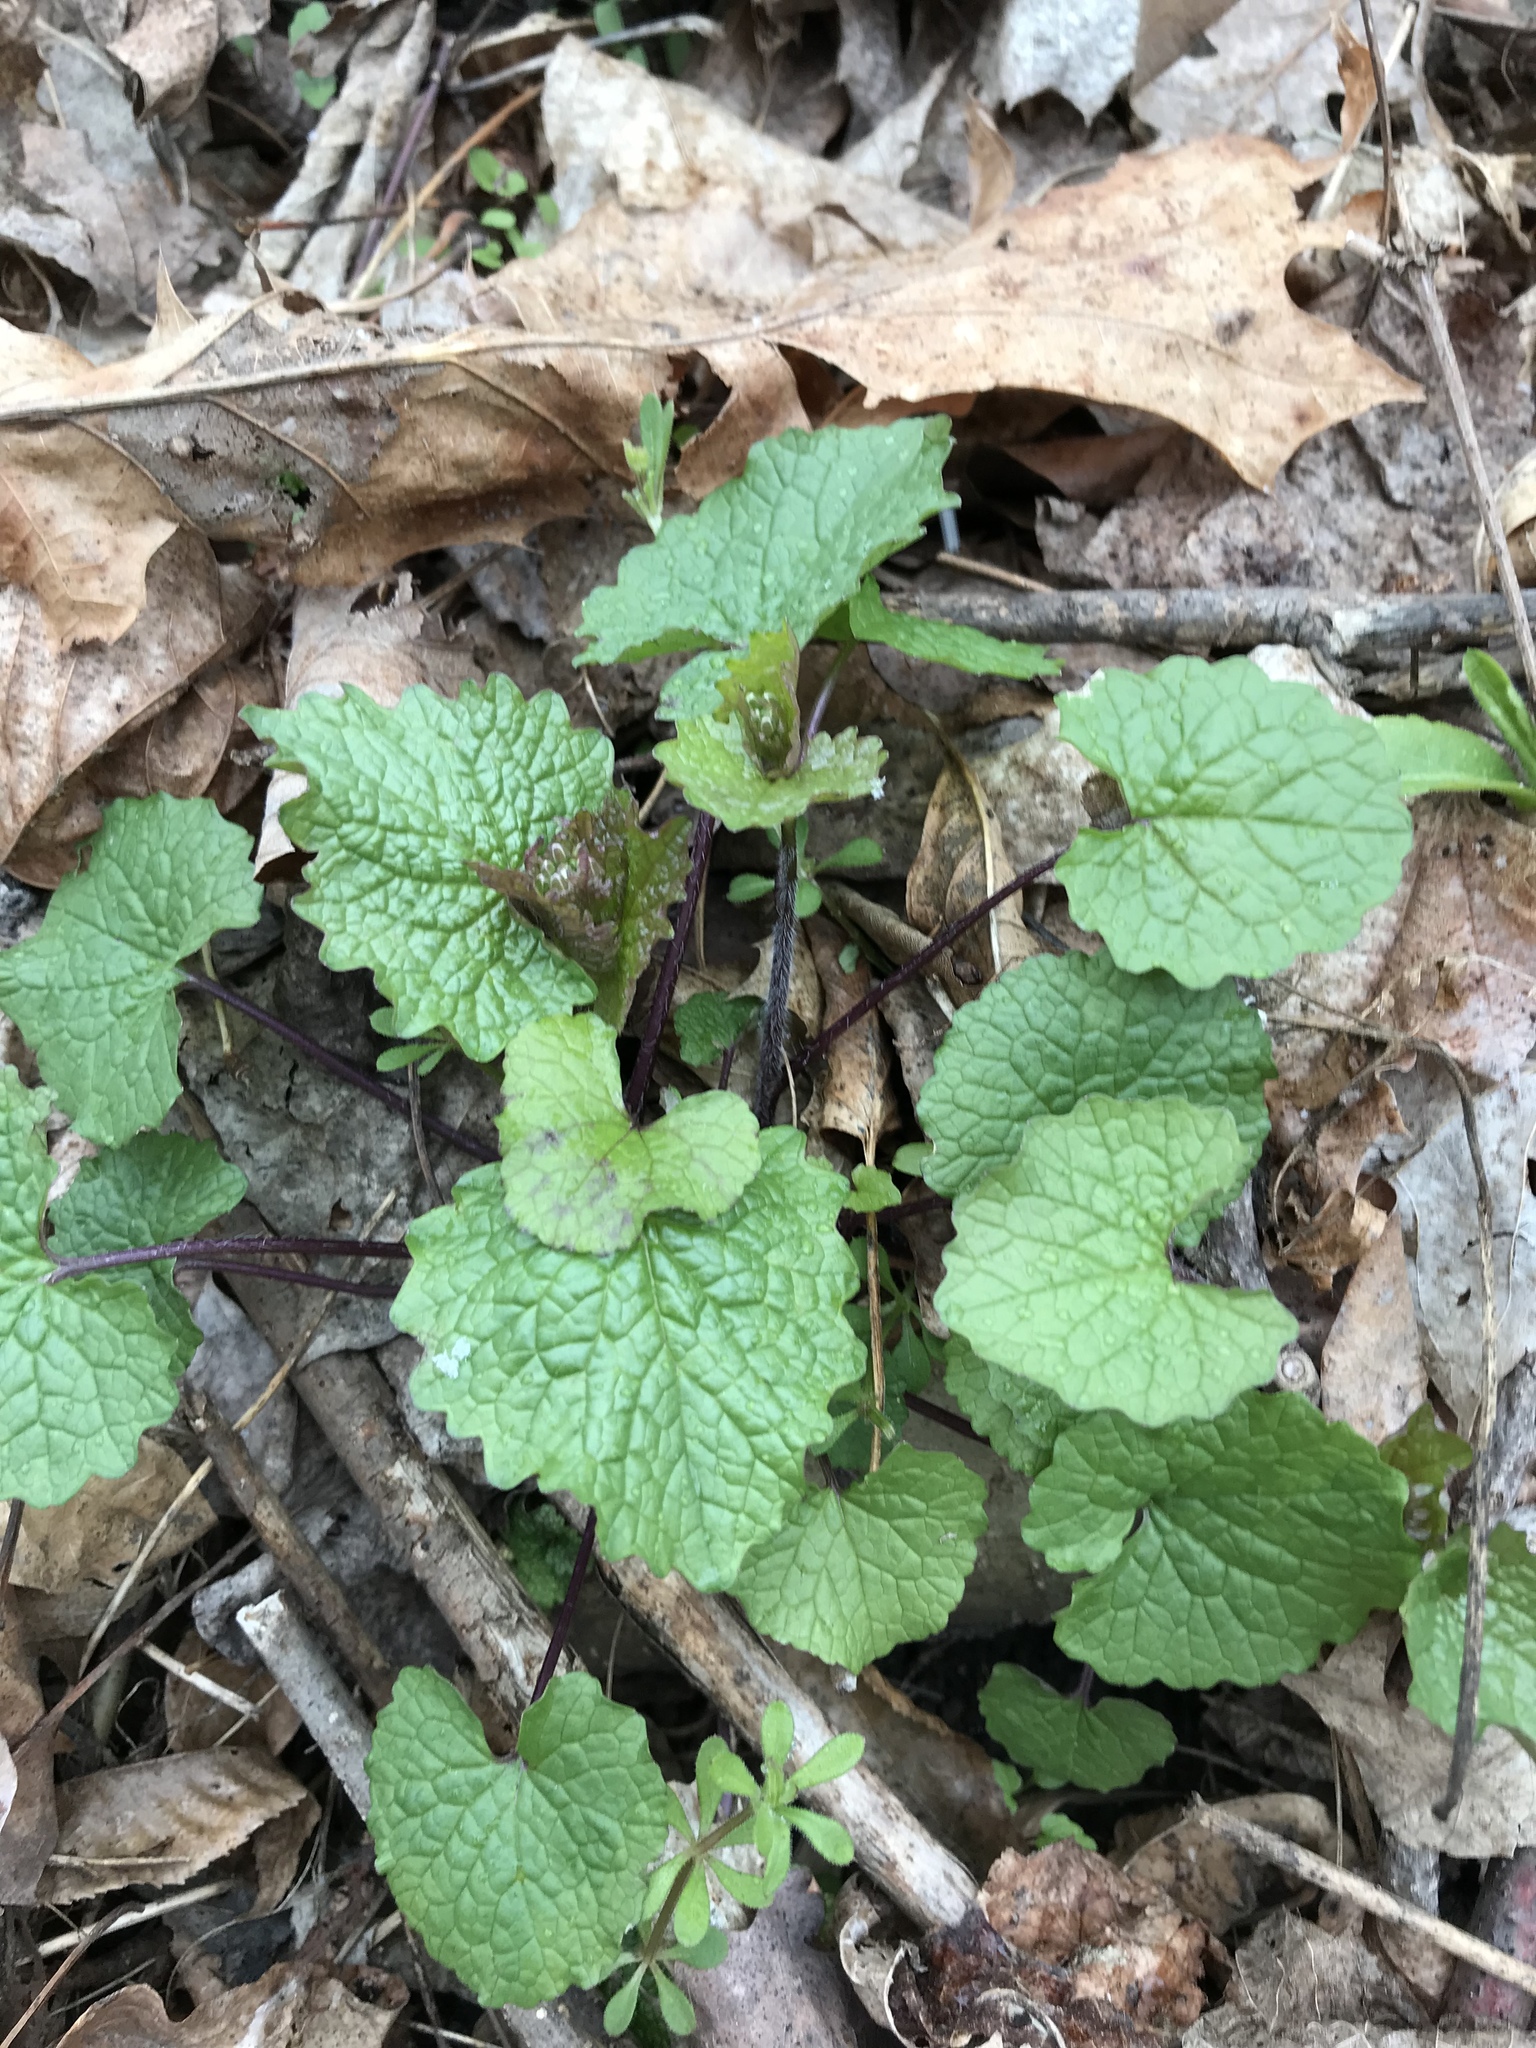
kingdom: Plantae
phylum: Tracheophyta
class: Magnoliopsida
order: Brassicales
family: Brassicaceae
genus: Alliaria
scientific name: Alliaria petiolata
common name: Garlic mustard
